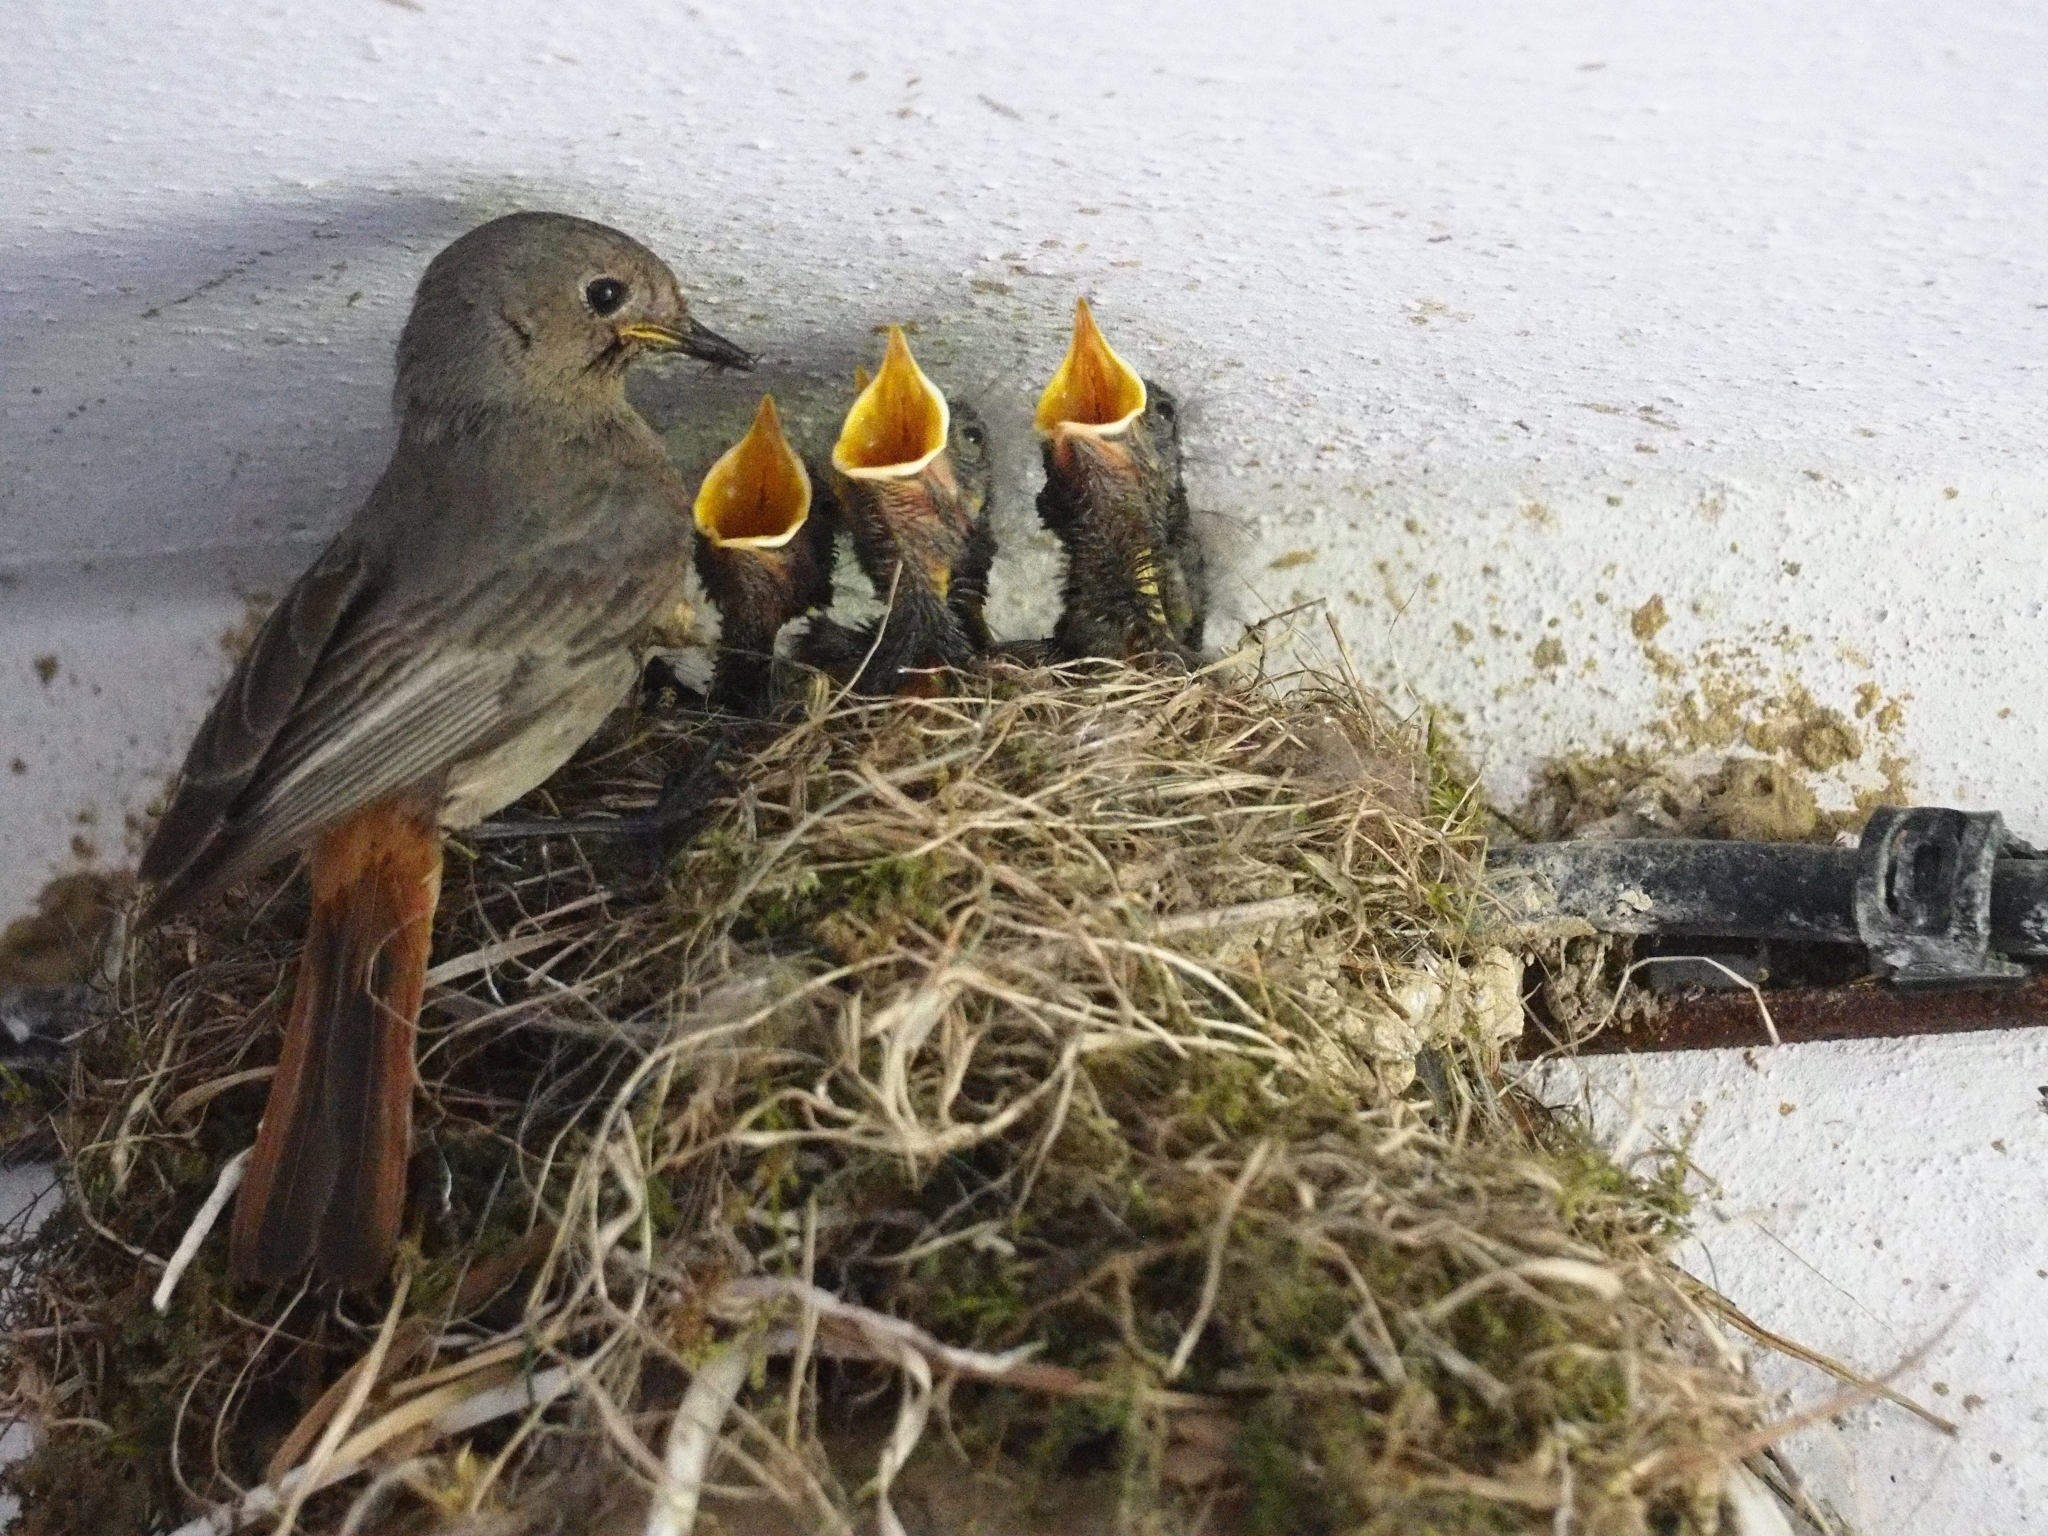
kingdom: Animalia
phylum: Chordata
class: Aves
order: Passeriformes
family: Muscicapidae
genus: Phoenicurus
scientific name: Phoenicurus ochruros
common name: Black redstart
